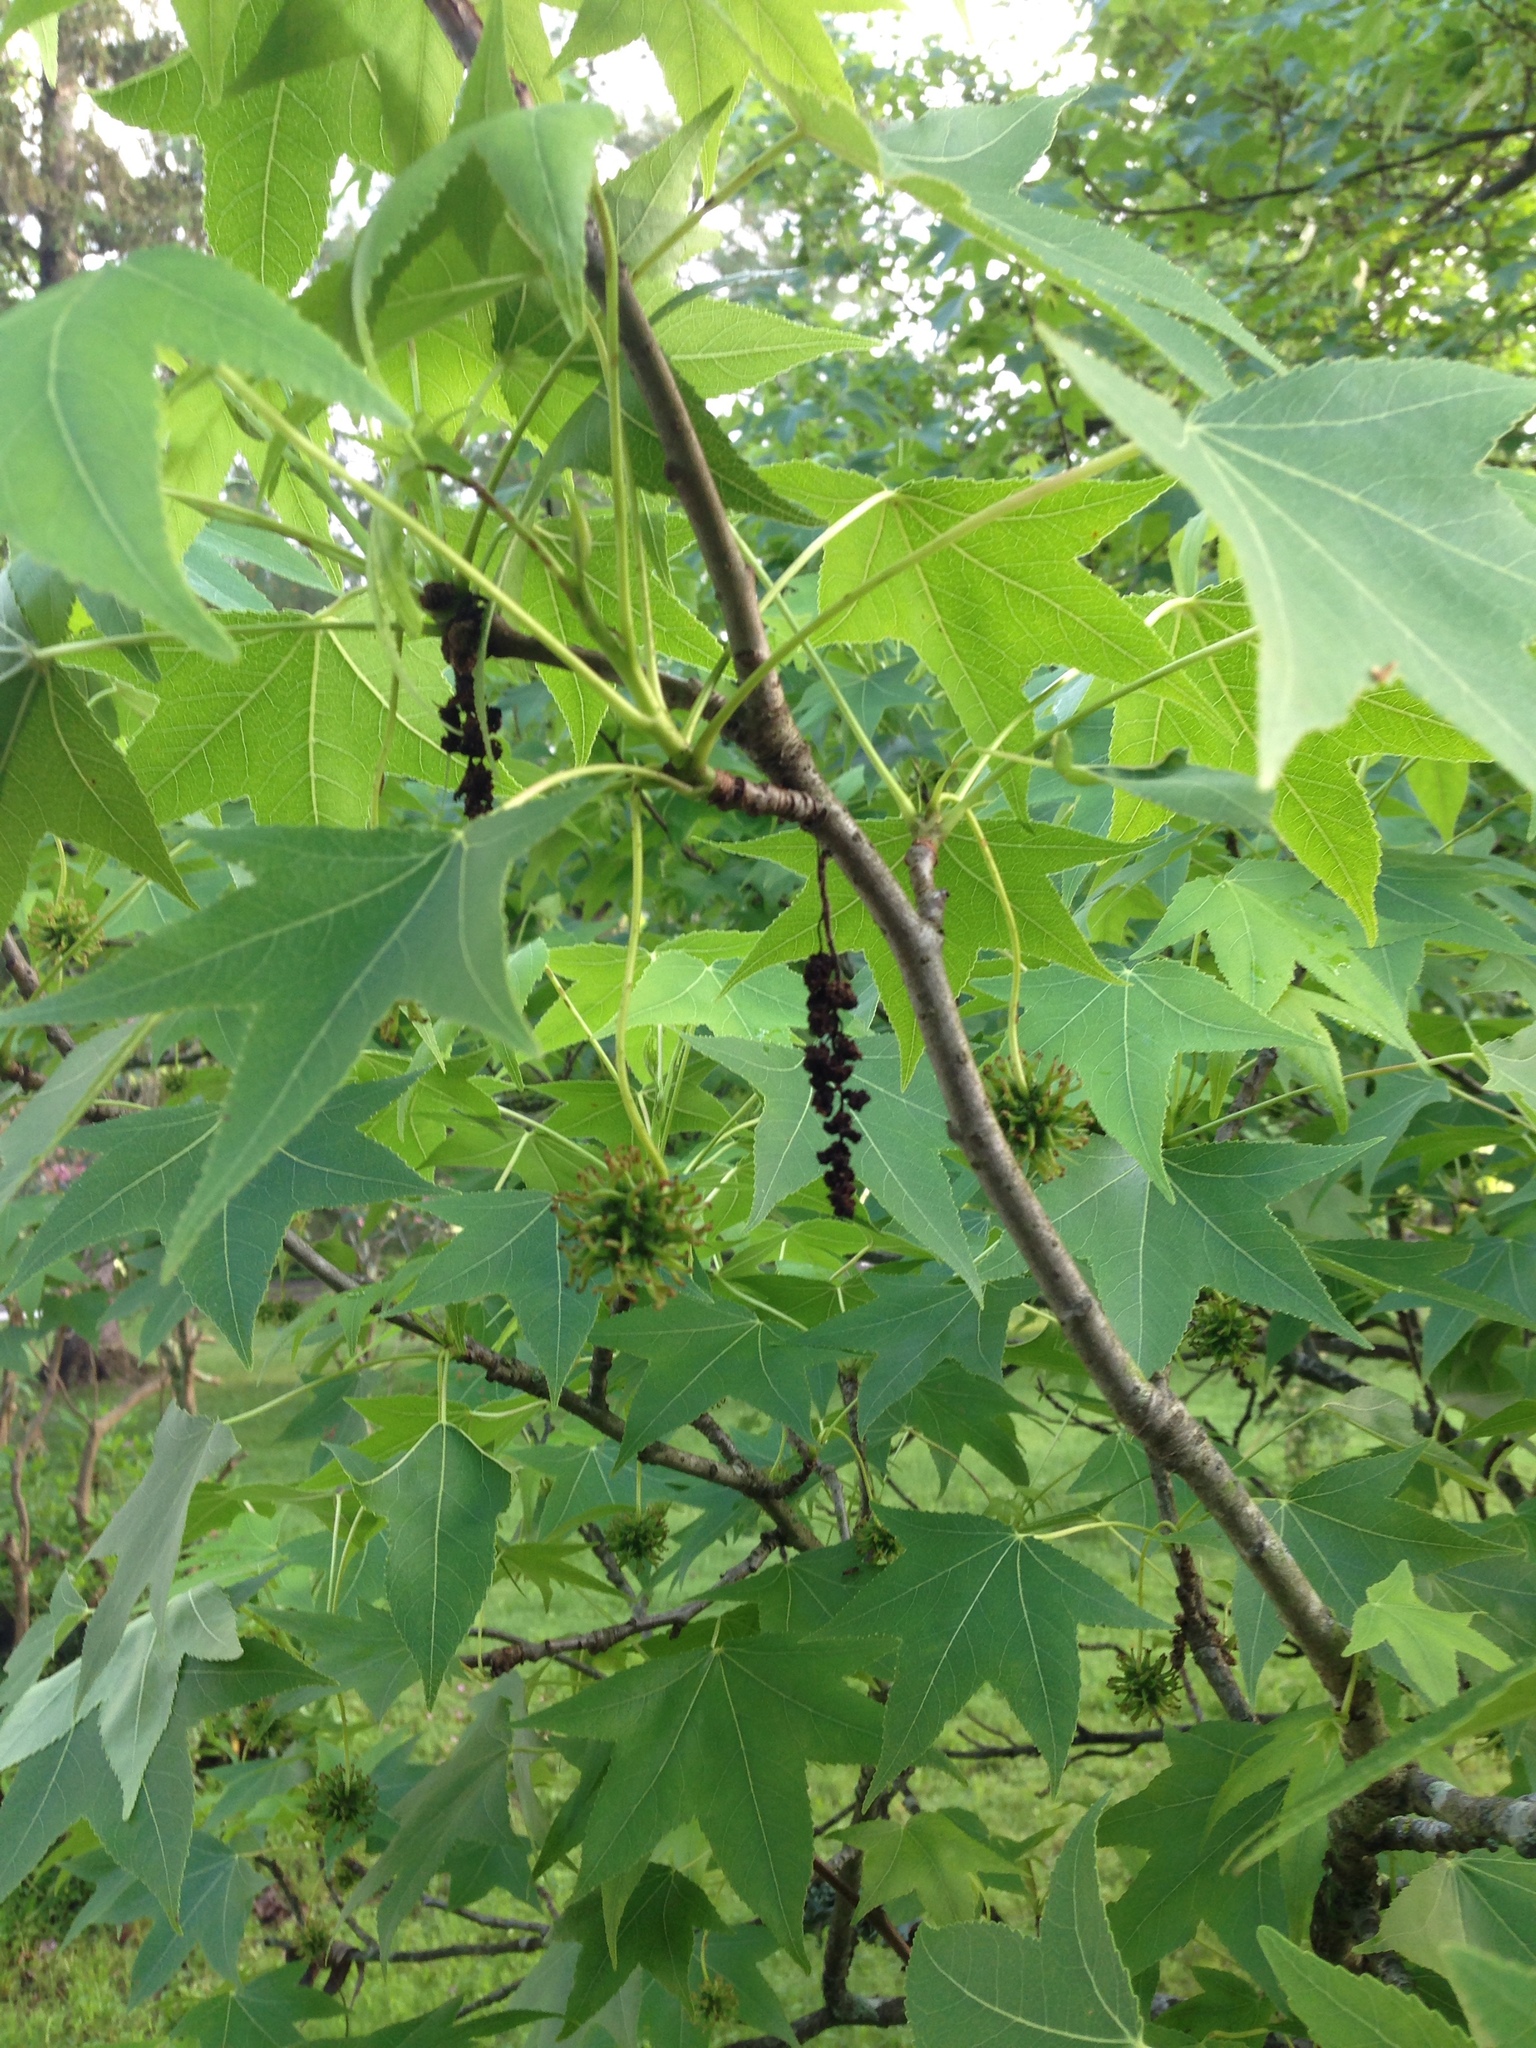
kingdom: Plantae
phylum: Tracheophyta
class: Magnoliopsida
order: Saxifragales
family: Altingiaceae
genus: Liquidambar
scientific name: Liquidambar styraciflua
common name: Sweet gum
